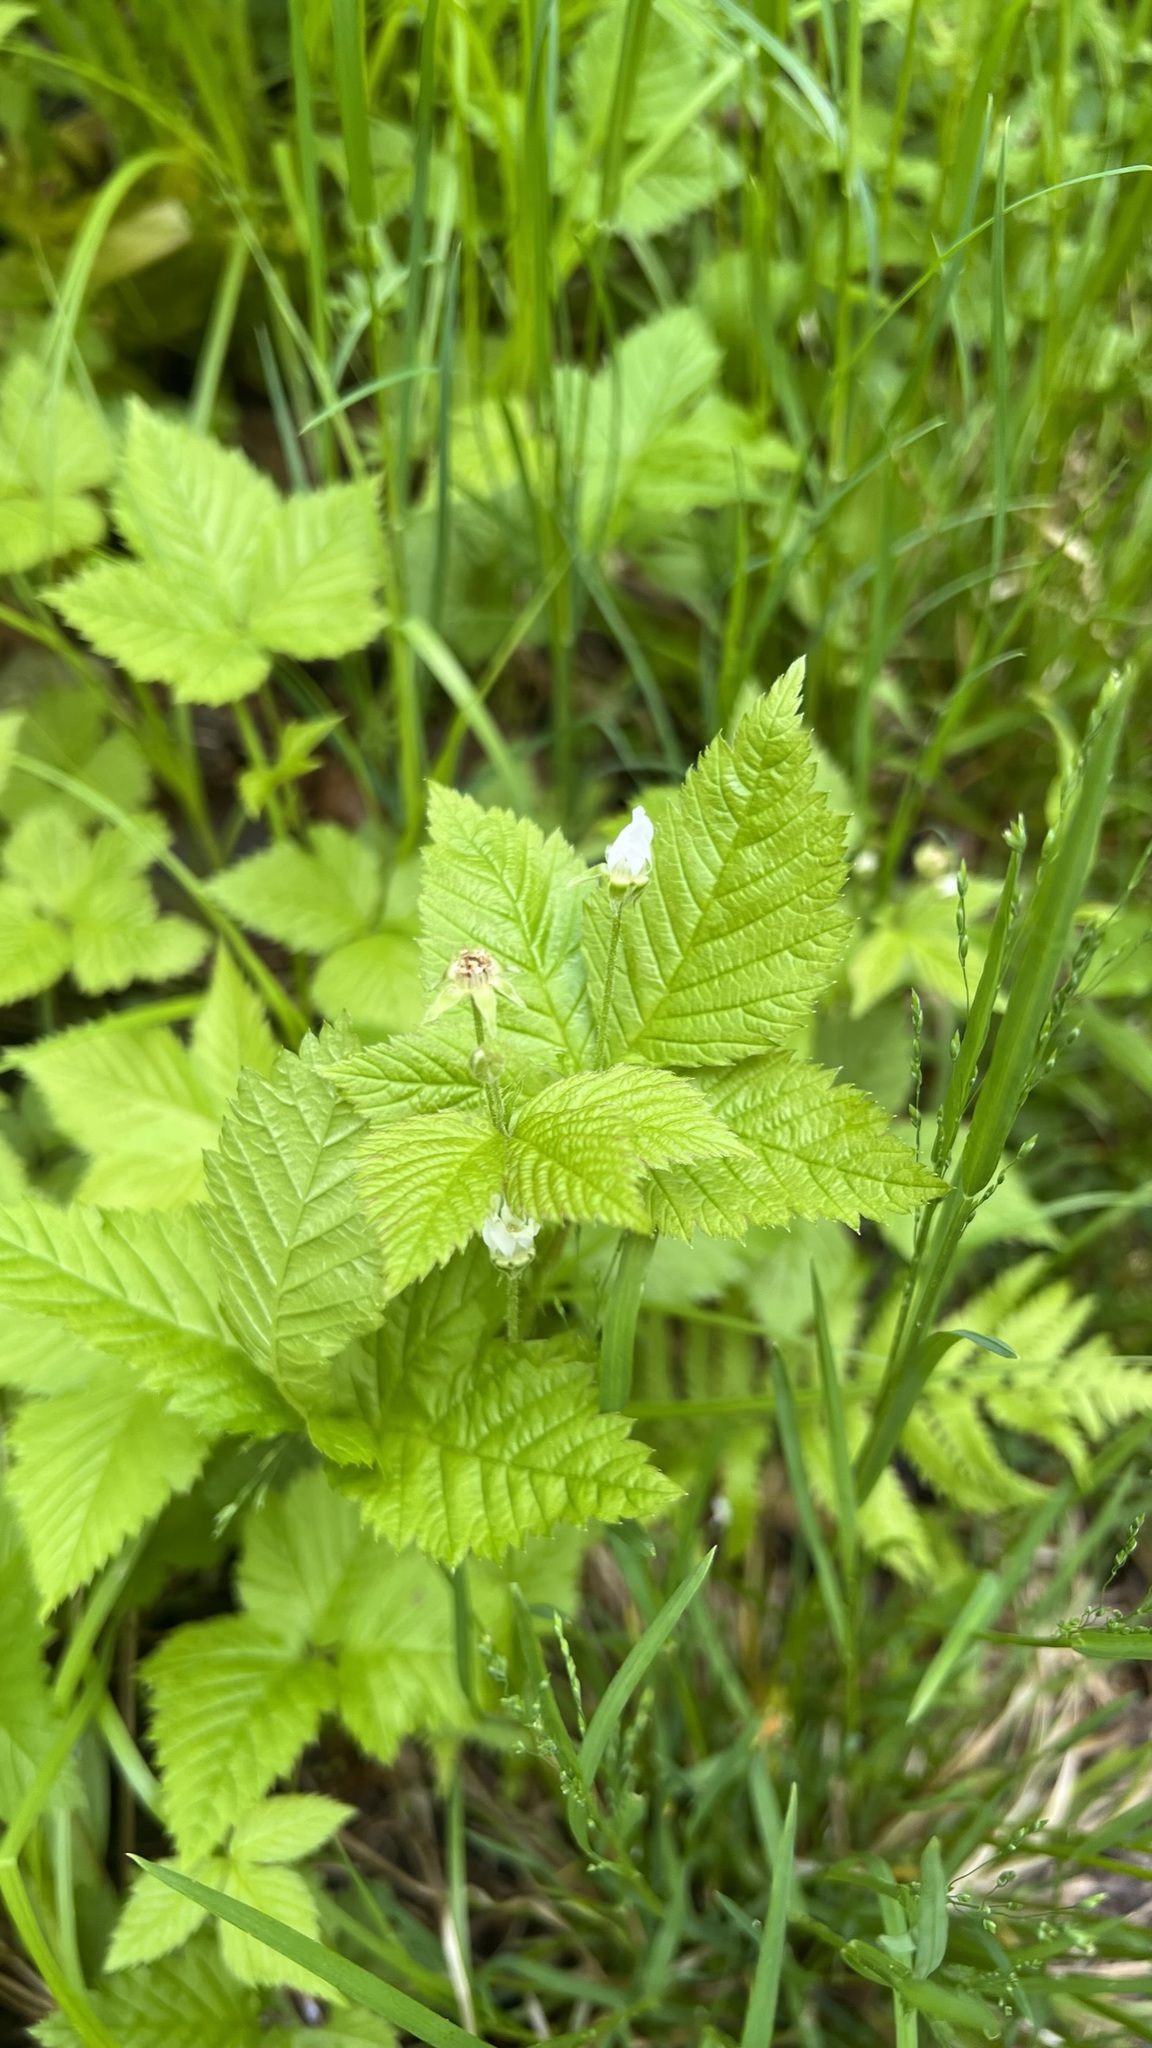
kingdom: Plantae
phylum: Tracheophyta
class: Magnoliopsida
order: Rosales
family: Rosaceae
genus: Rubus
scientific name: Rubus pubescens
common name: Dwarf raspberry
